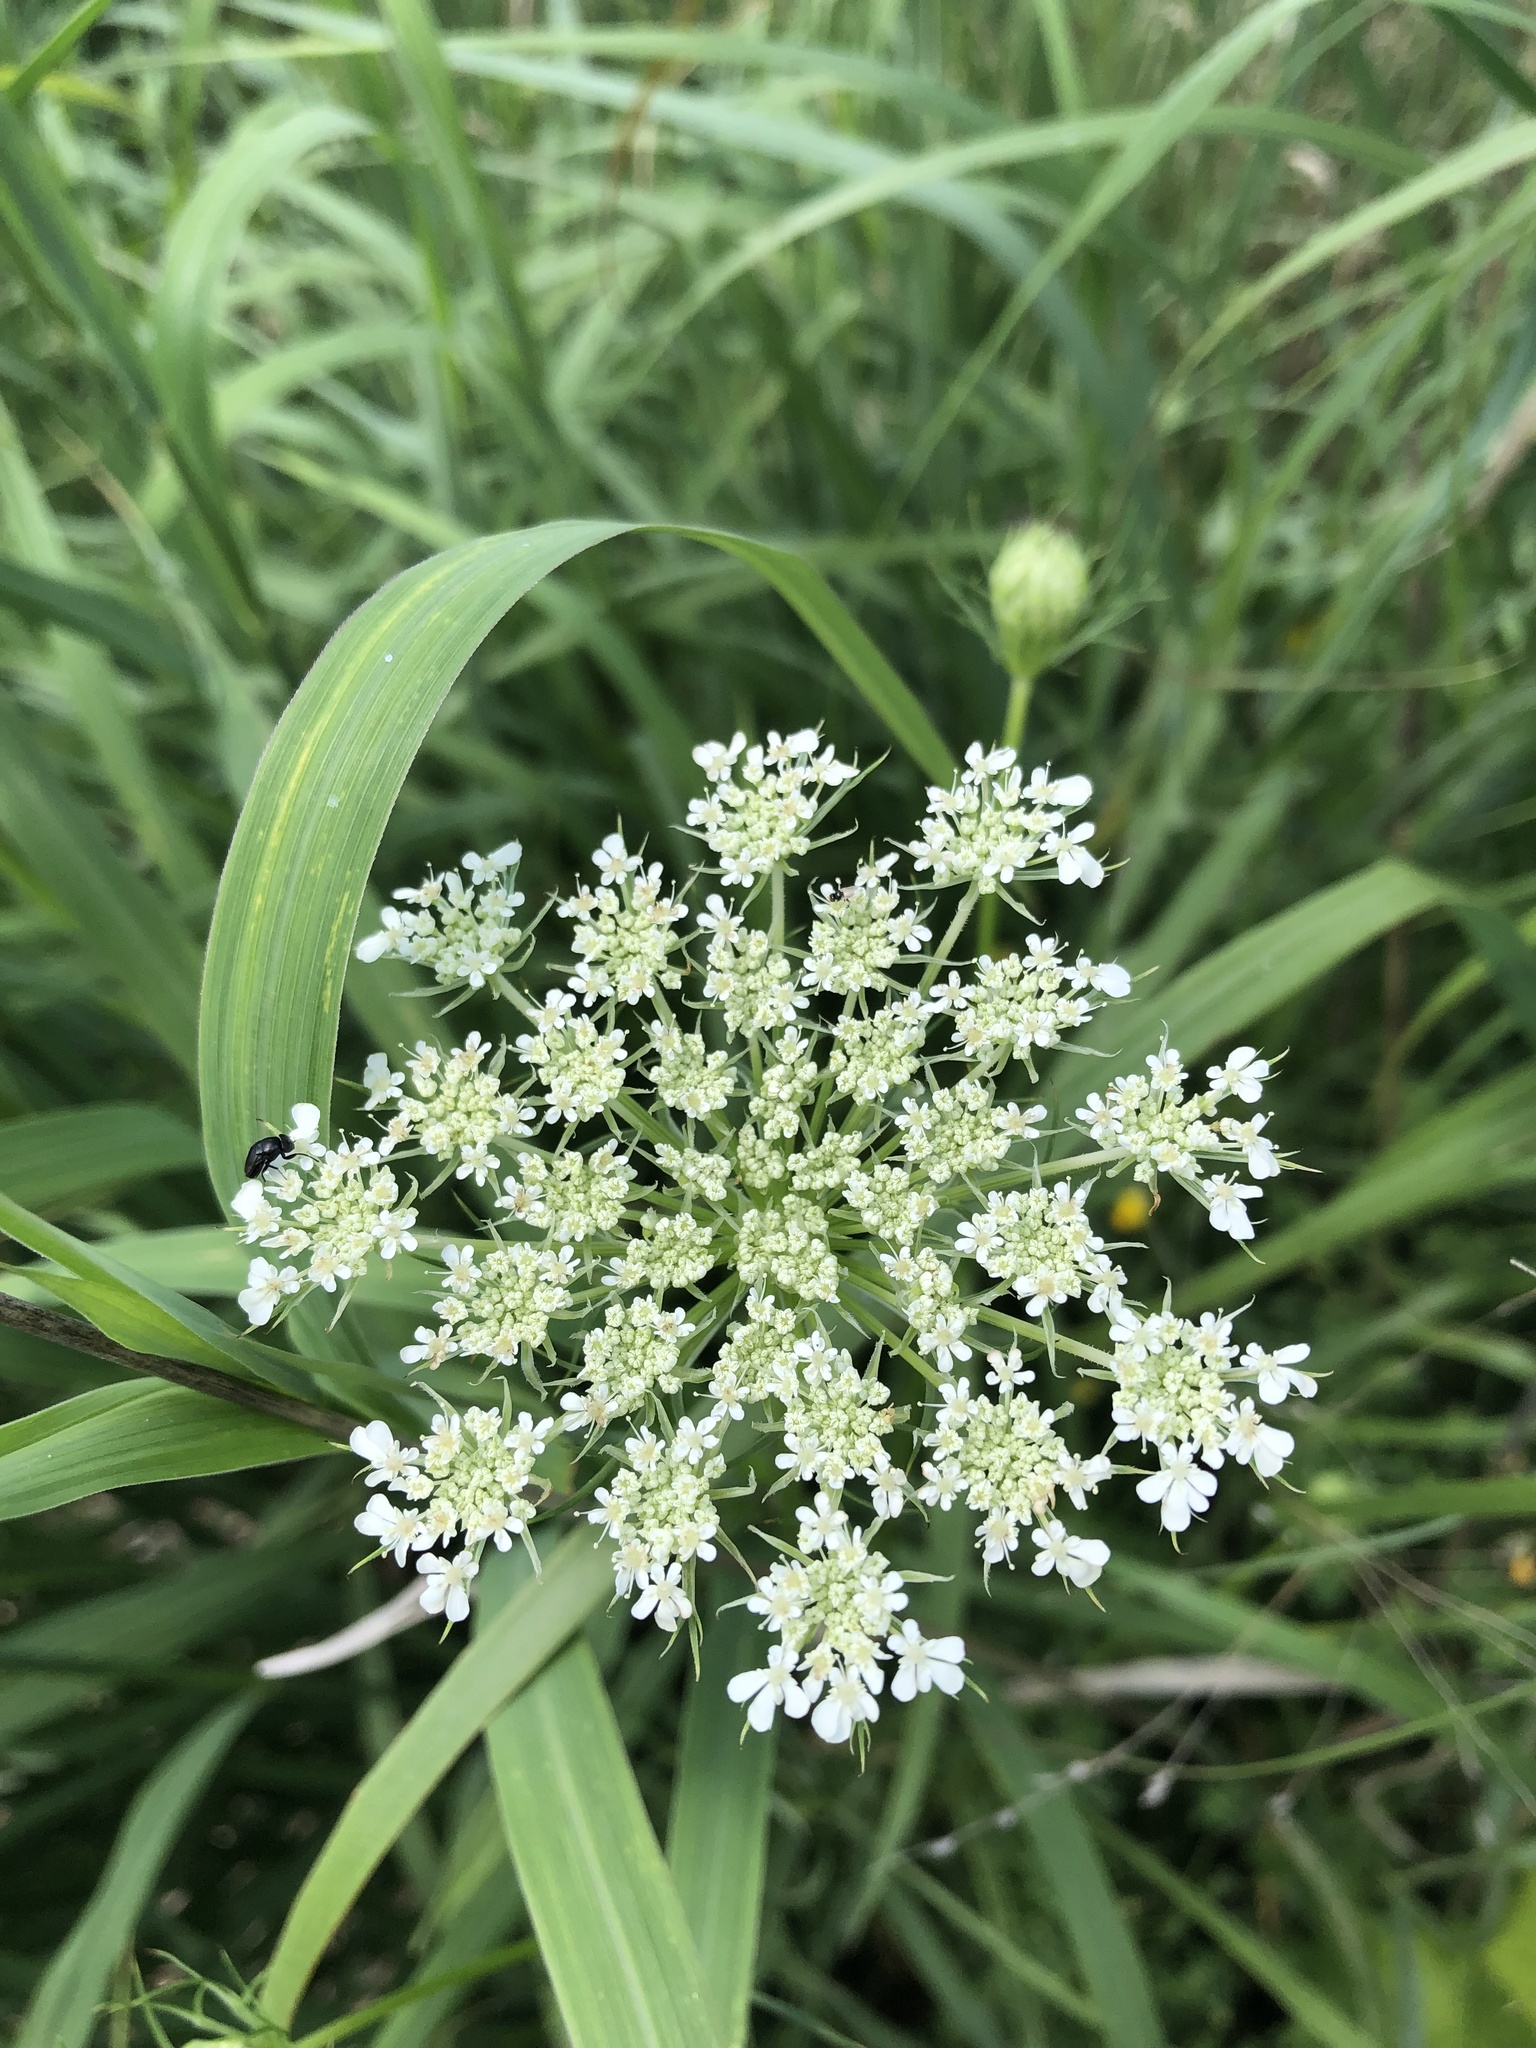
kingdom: Plantae
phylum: Tracheophyta
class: Magnoliopsida
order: Apiales
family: Apiaceae
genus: Daucus
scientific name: Daucus carota
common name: Wild carrot
